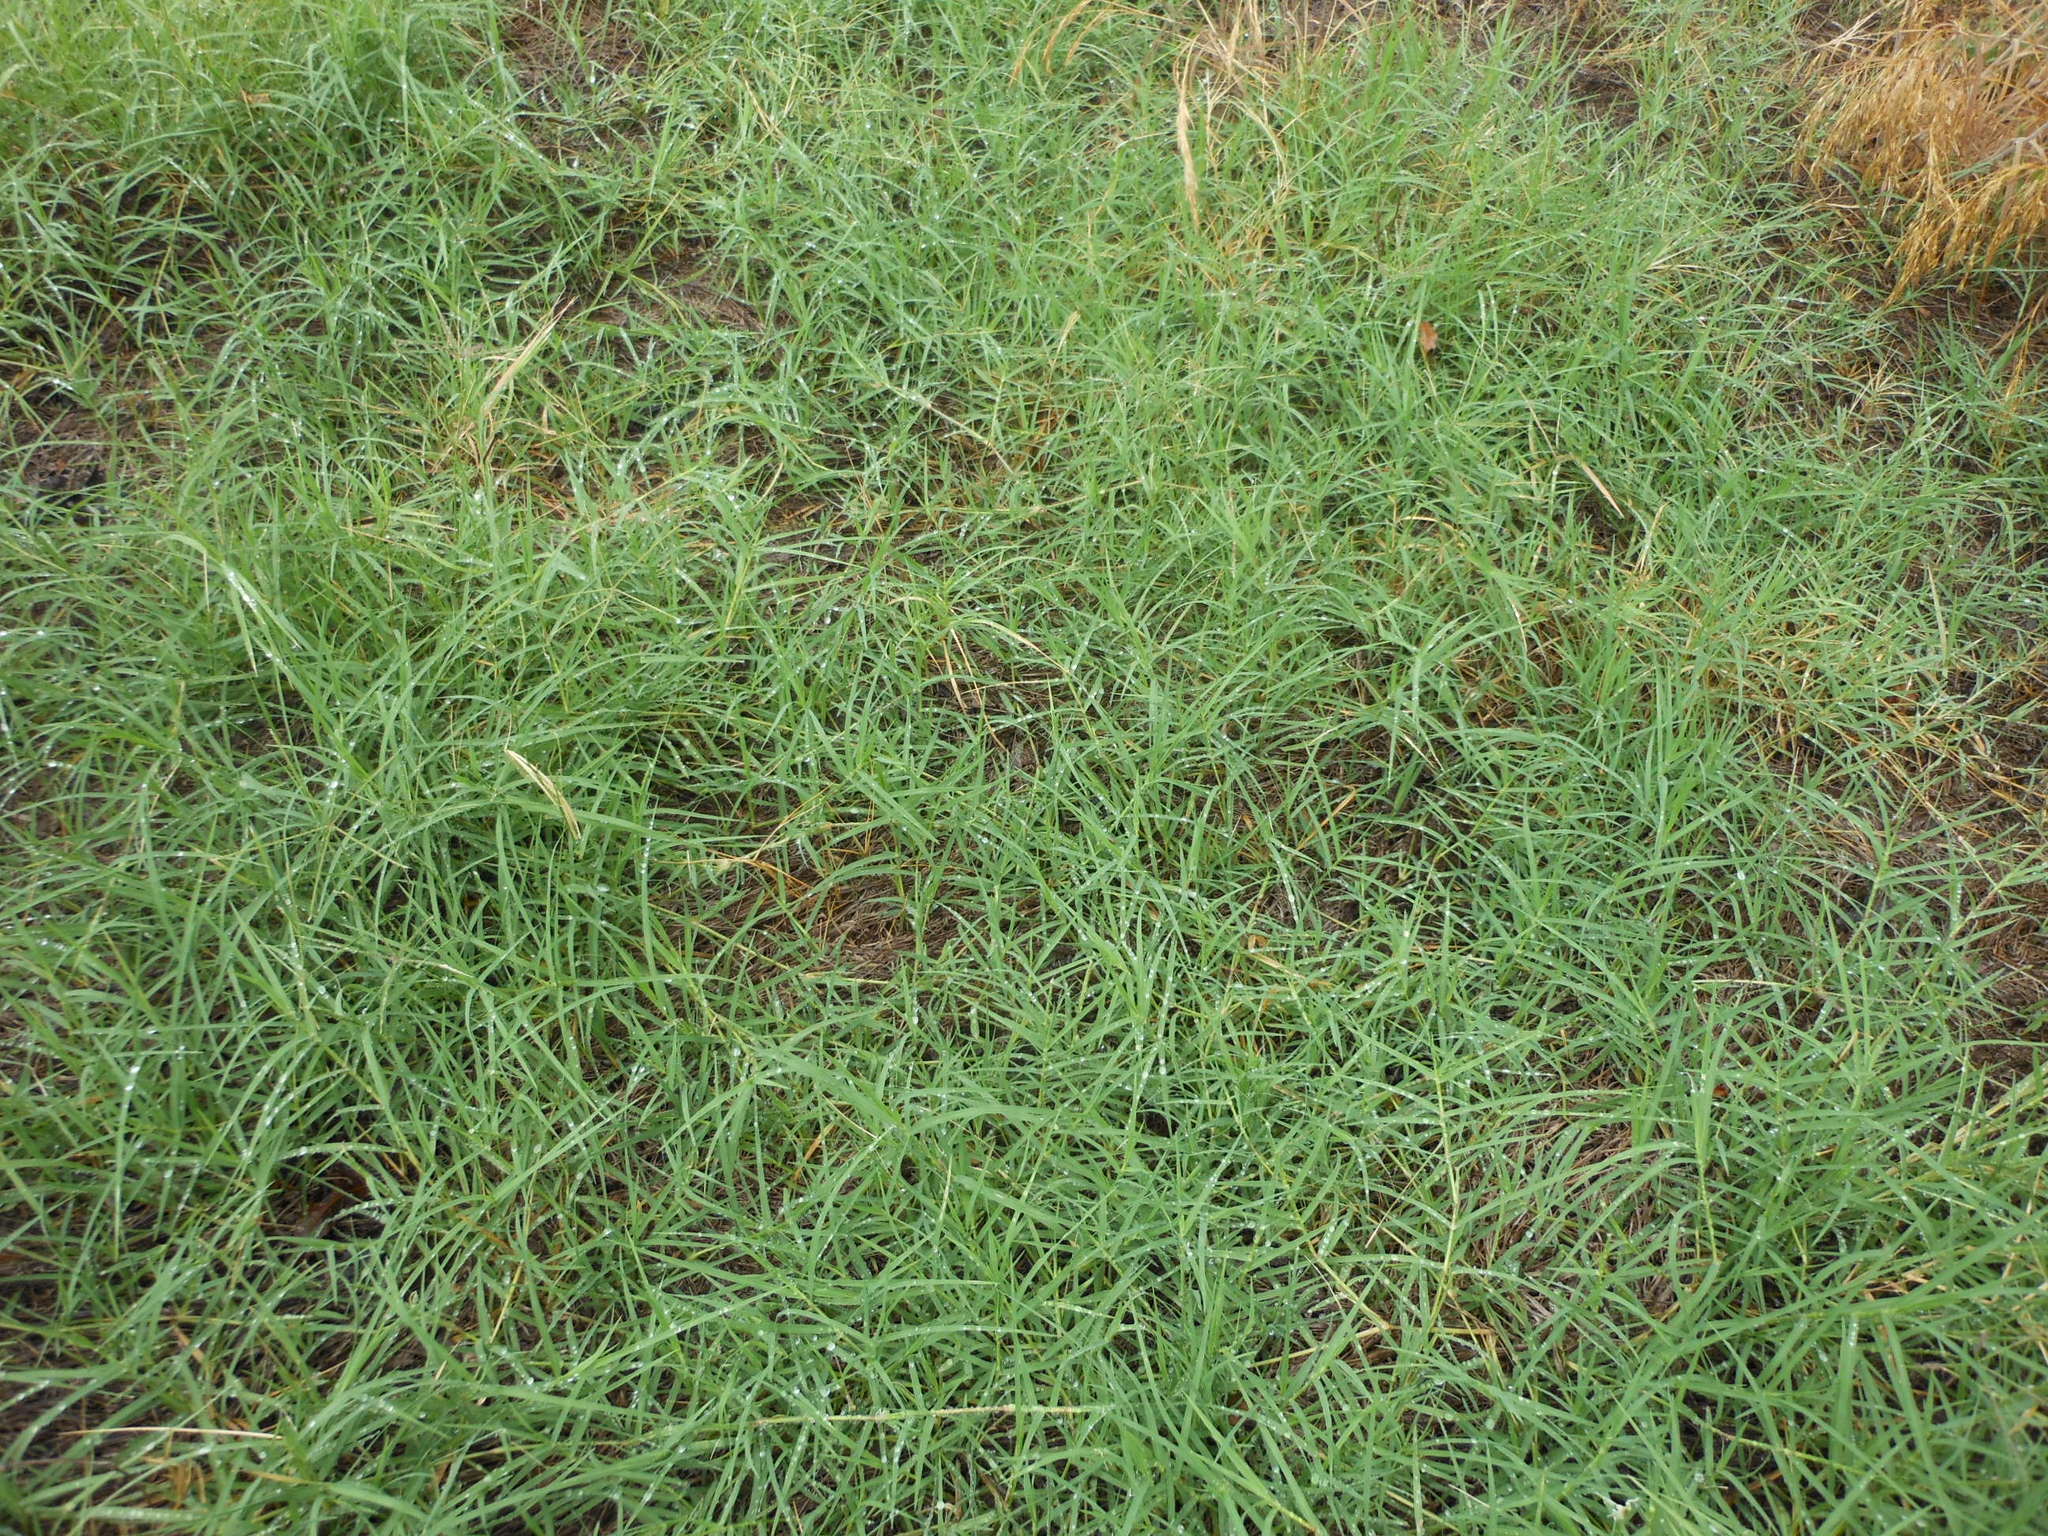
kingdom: Plantae
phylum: Tracheophyta
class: Liliopsida
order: Poales
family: Poaceae
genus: Cynodon
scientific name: Cynodon dactylon
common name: Bermuda grass
